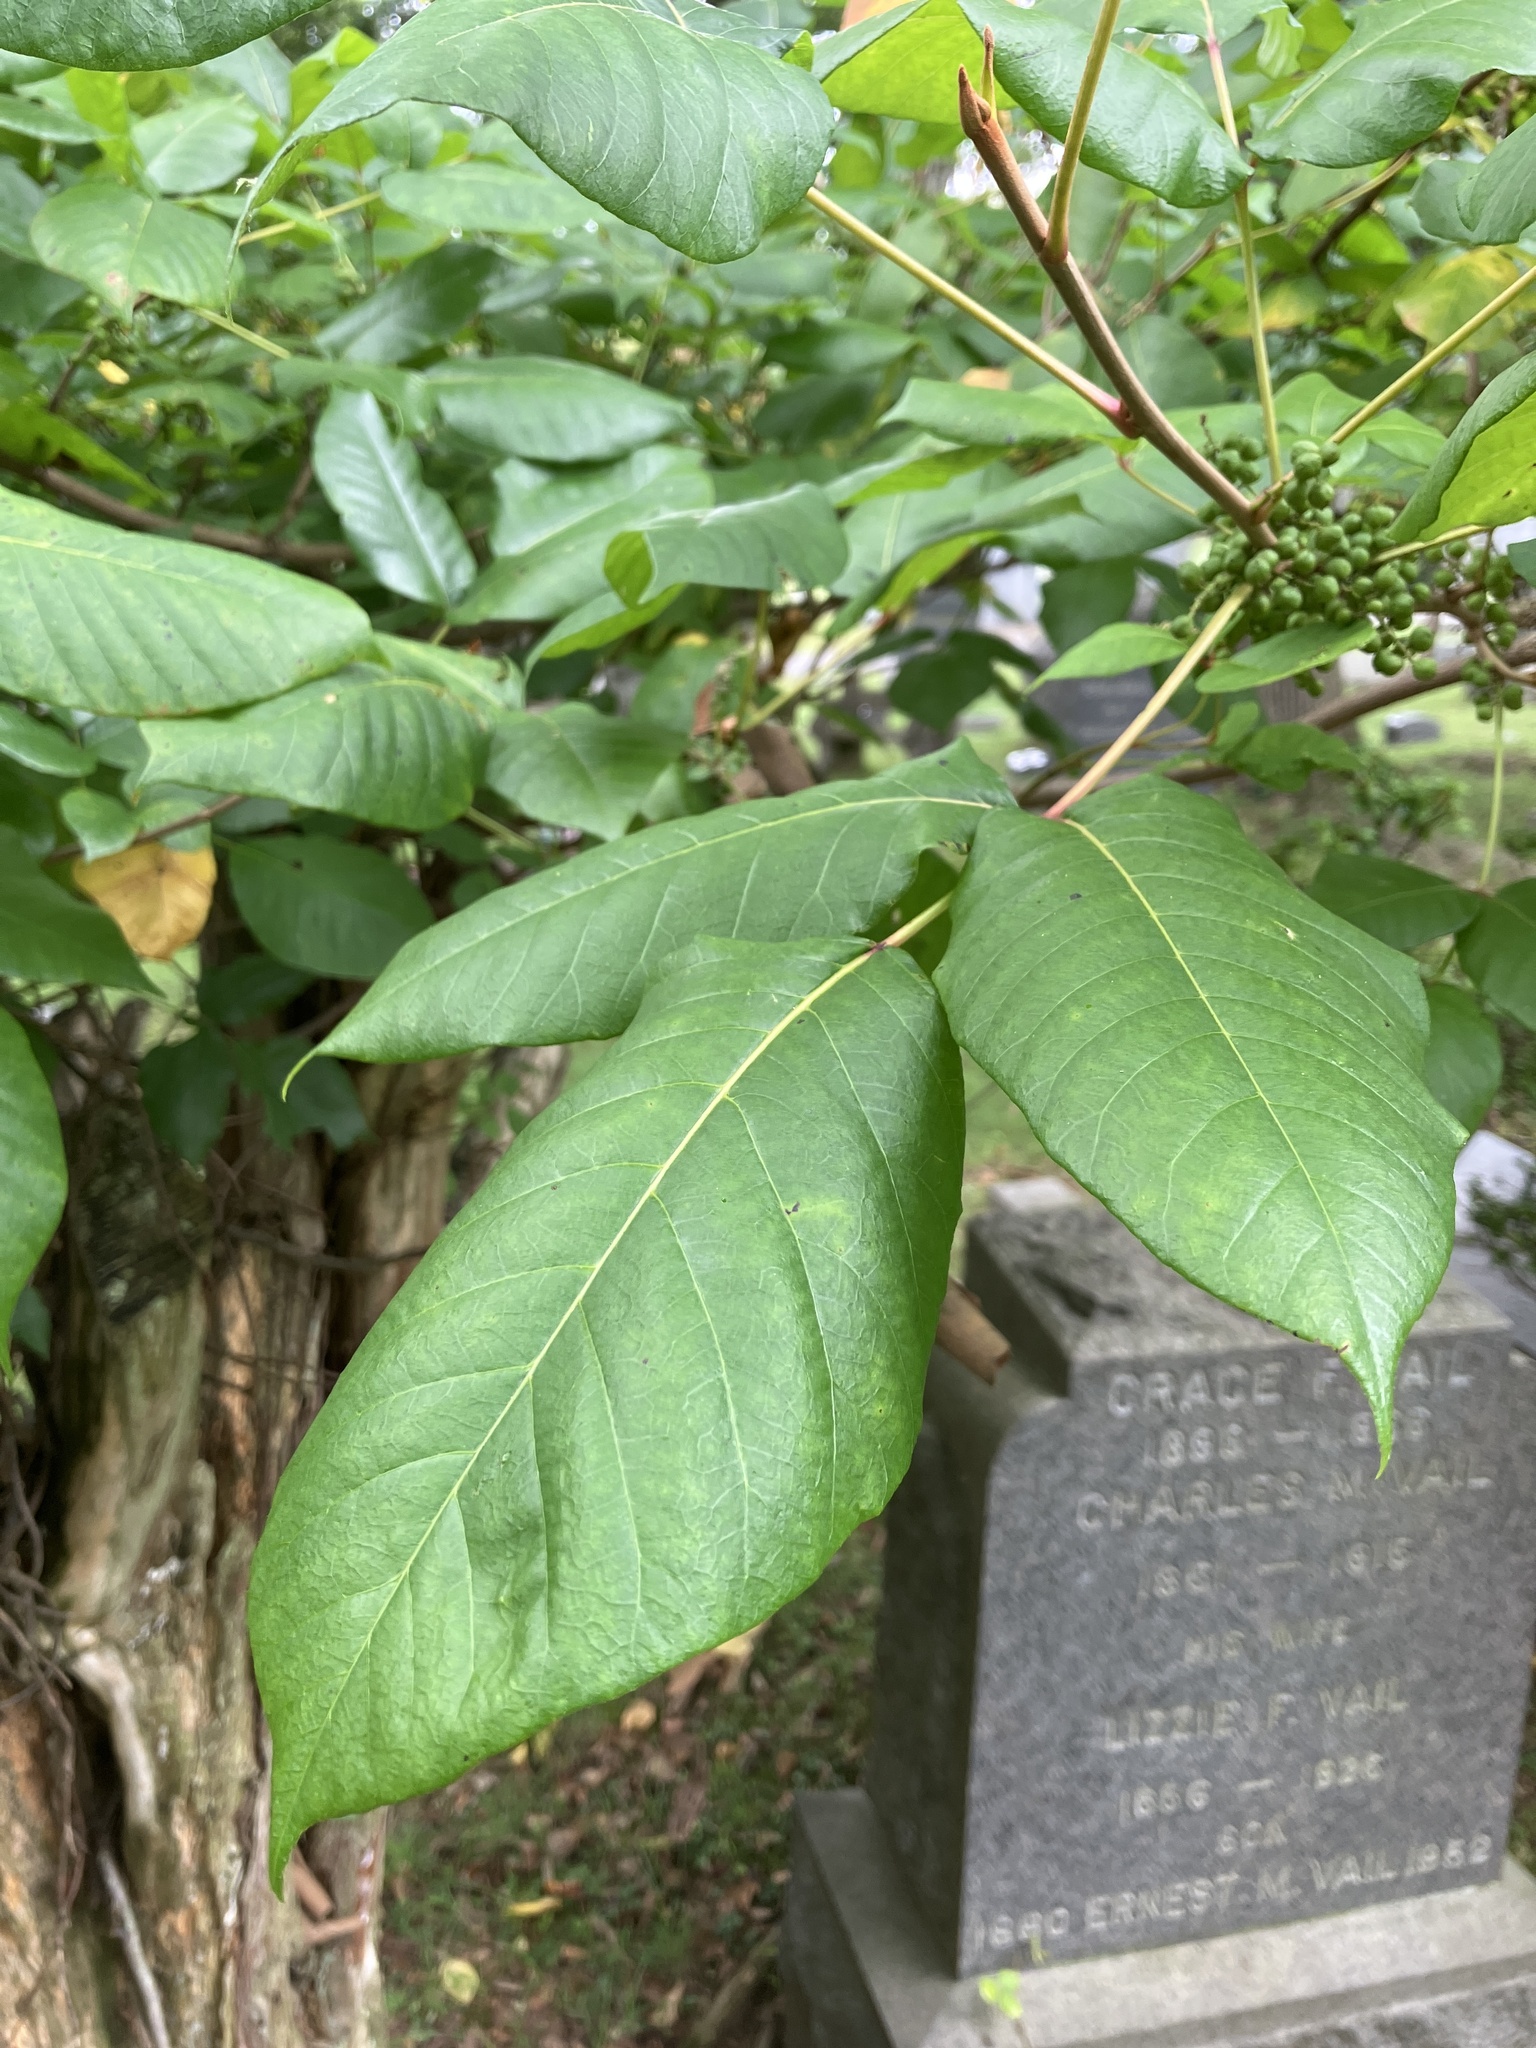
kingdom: Plantae
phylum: Tracheophyta
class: Magnoliopsida
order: Sapindales
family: Anacardiaceae
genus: Toxicodendron
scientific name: Toxicodendron radicans
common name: Poison ivy
